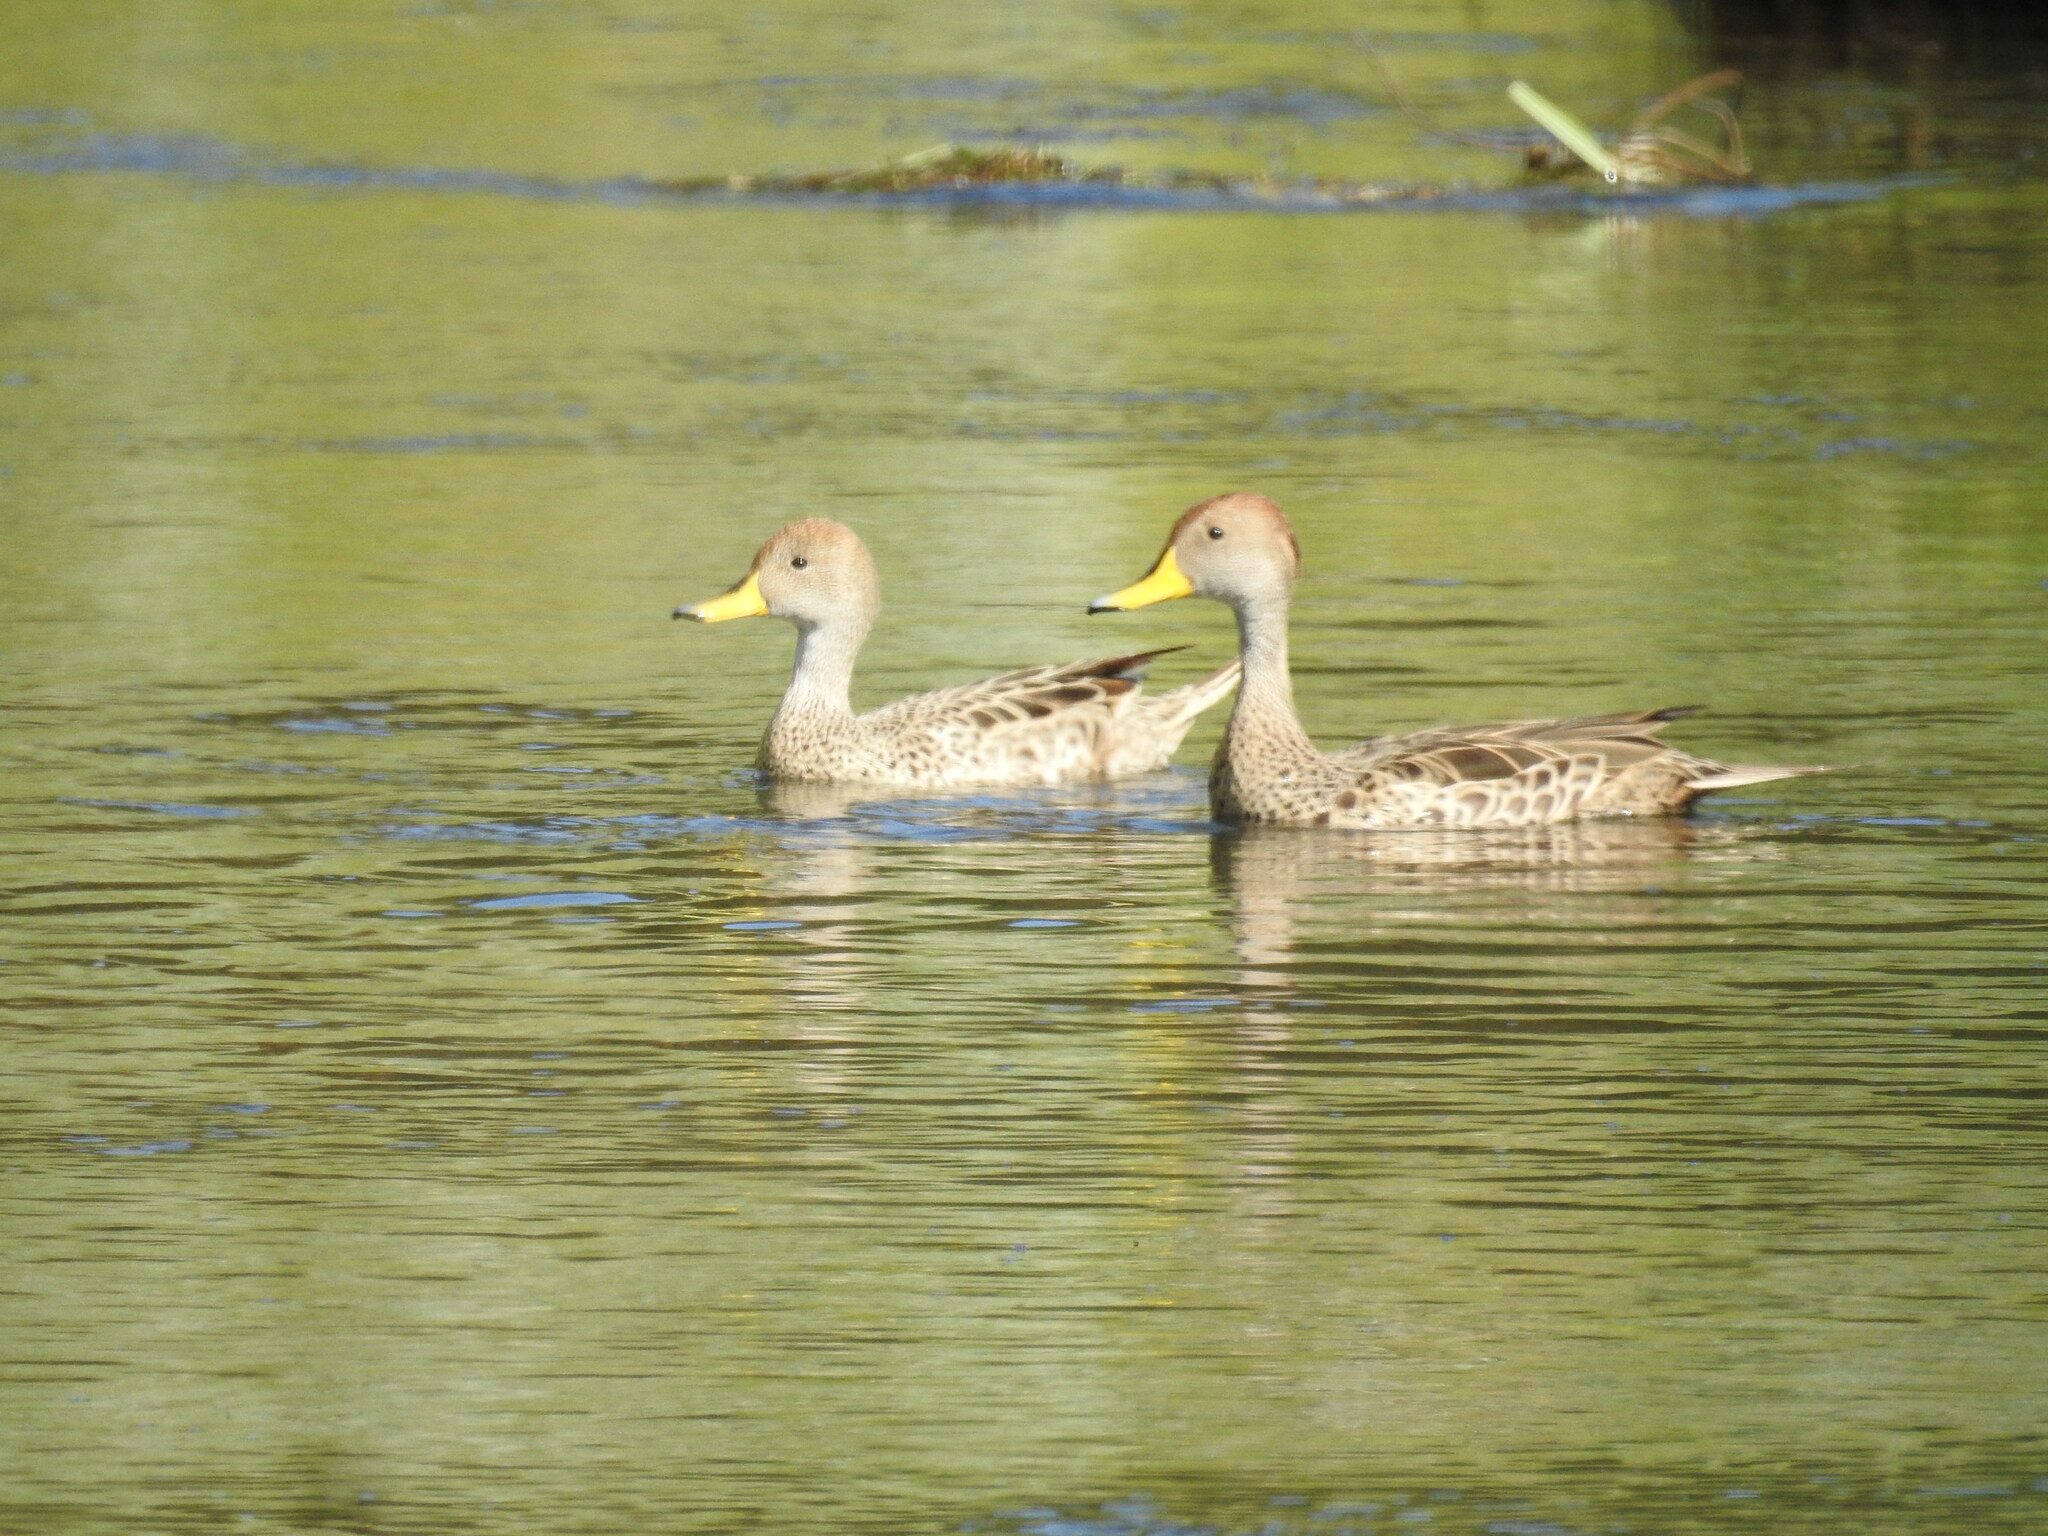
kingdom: Animalia
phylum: Chordata
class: Aves
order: Anseriformes
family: Anatidae
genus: Anas
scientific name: Anas georgica
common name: Yellow-billed pintail
